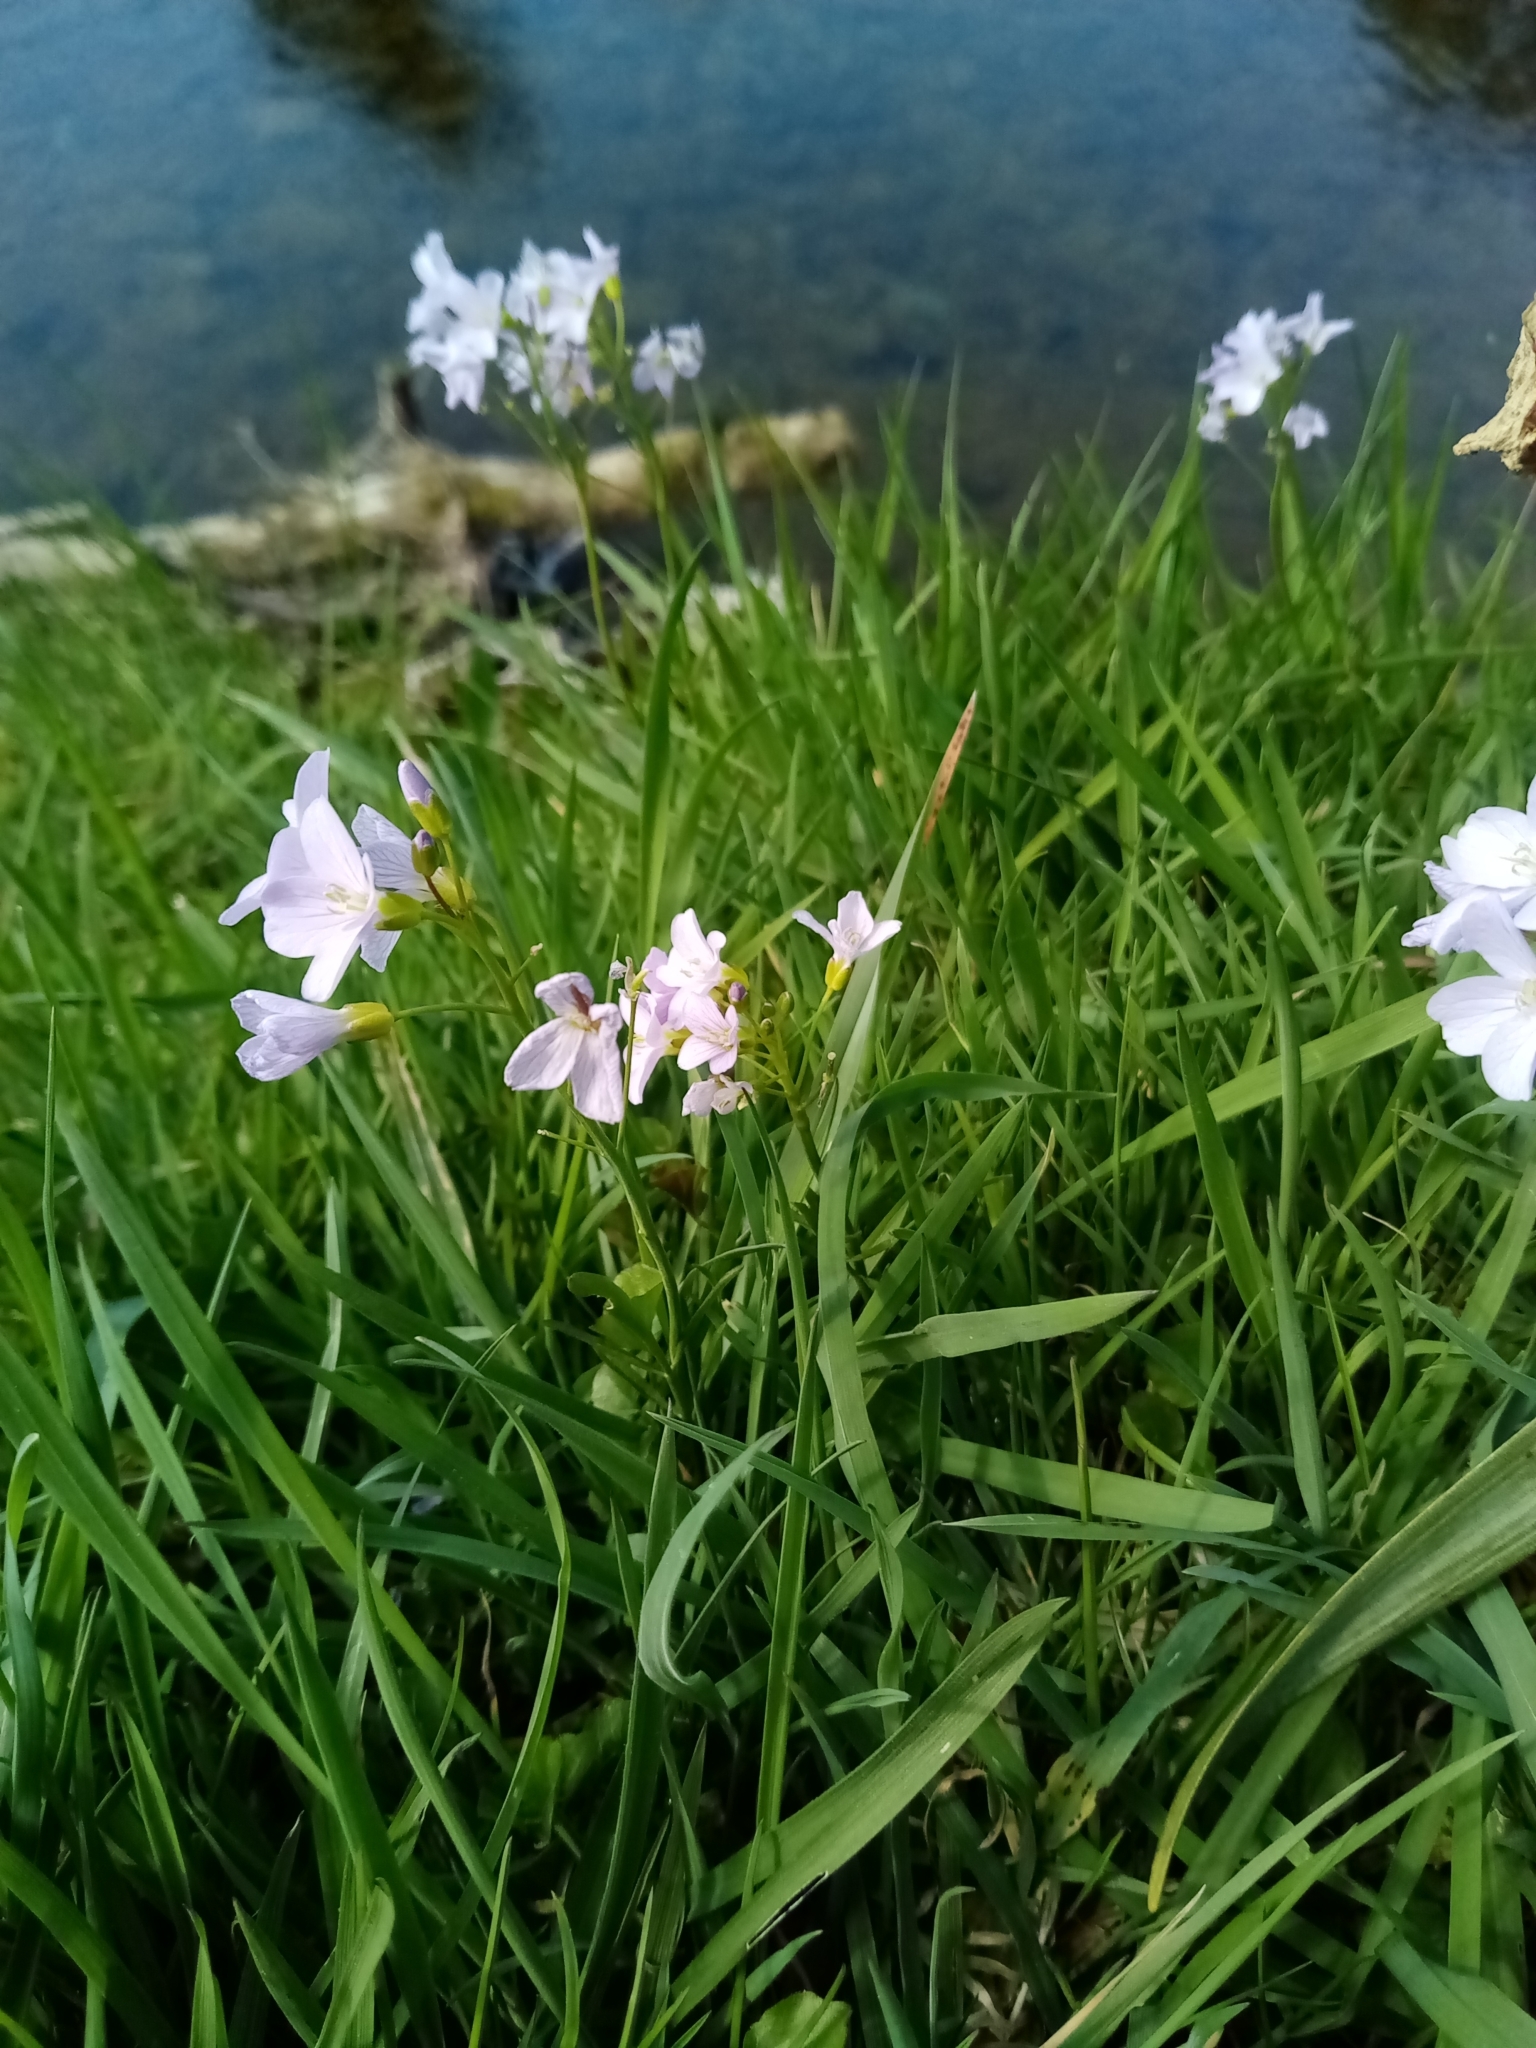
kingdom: Plantae
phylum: Tracheophyta
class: Magnoliopsida
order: Brassicales
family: Brassicaceae
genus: Cardamine
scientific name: Cardamine pratensis
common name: Cuckoo flower
